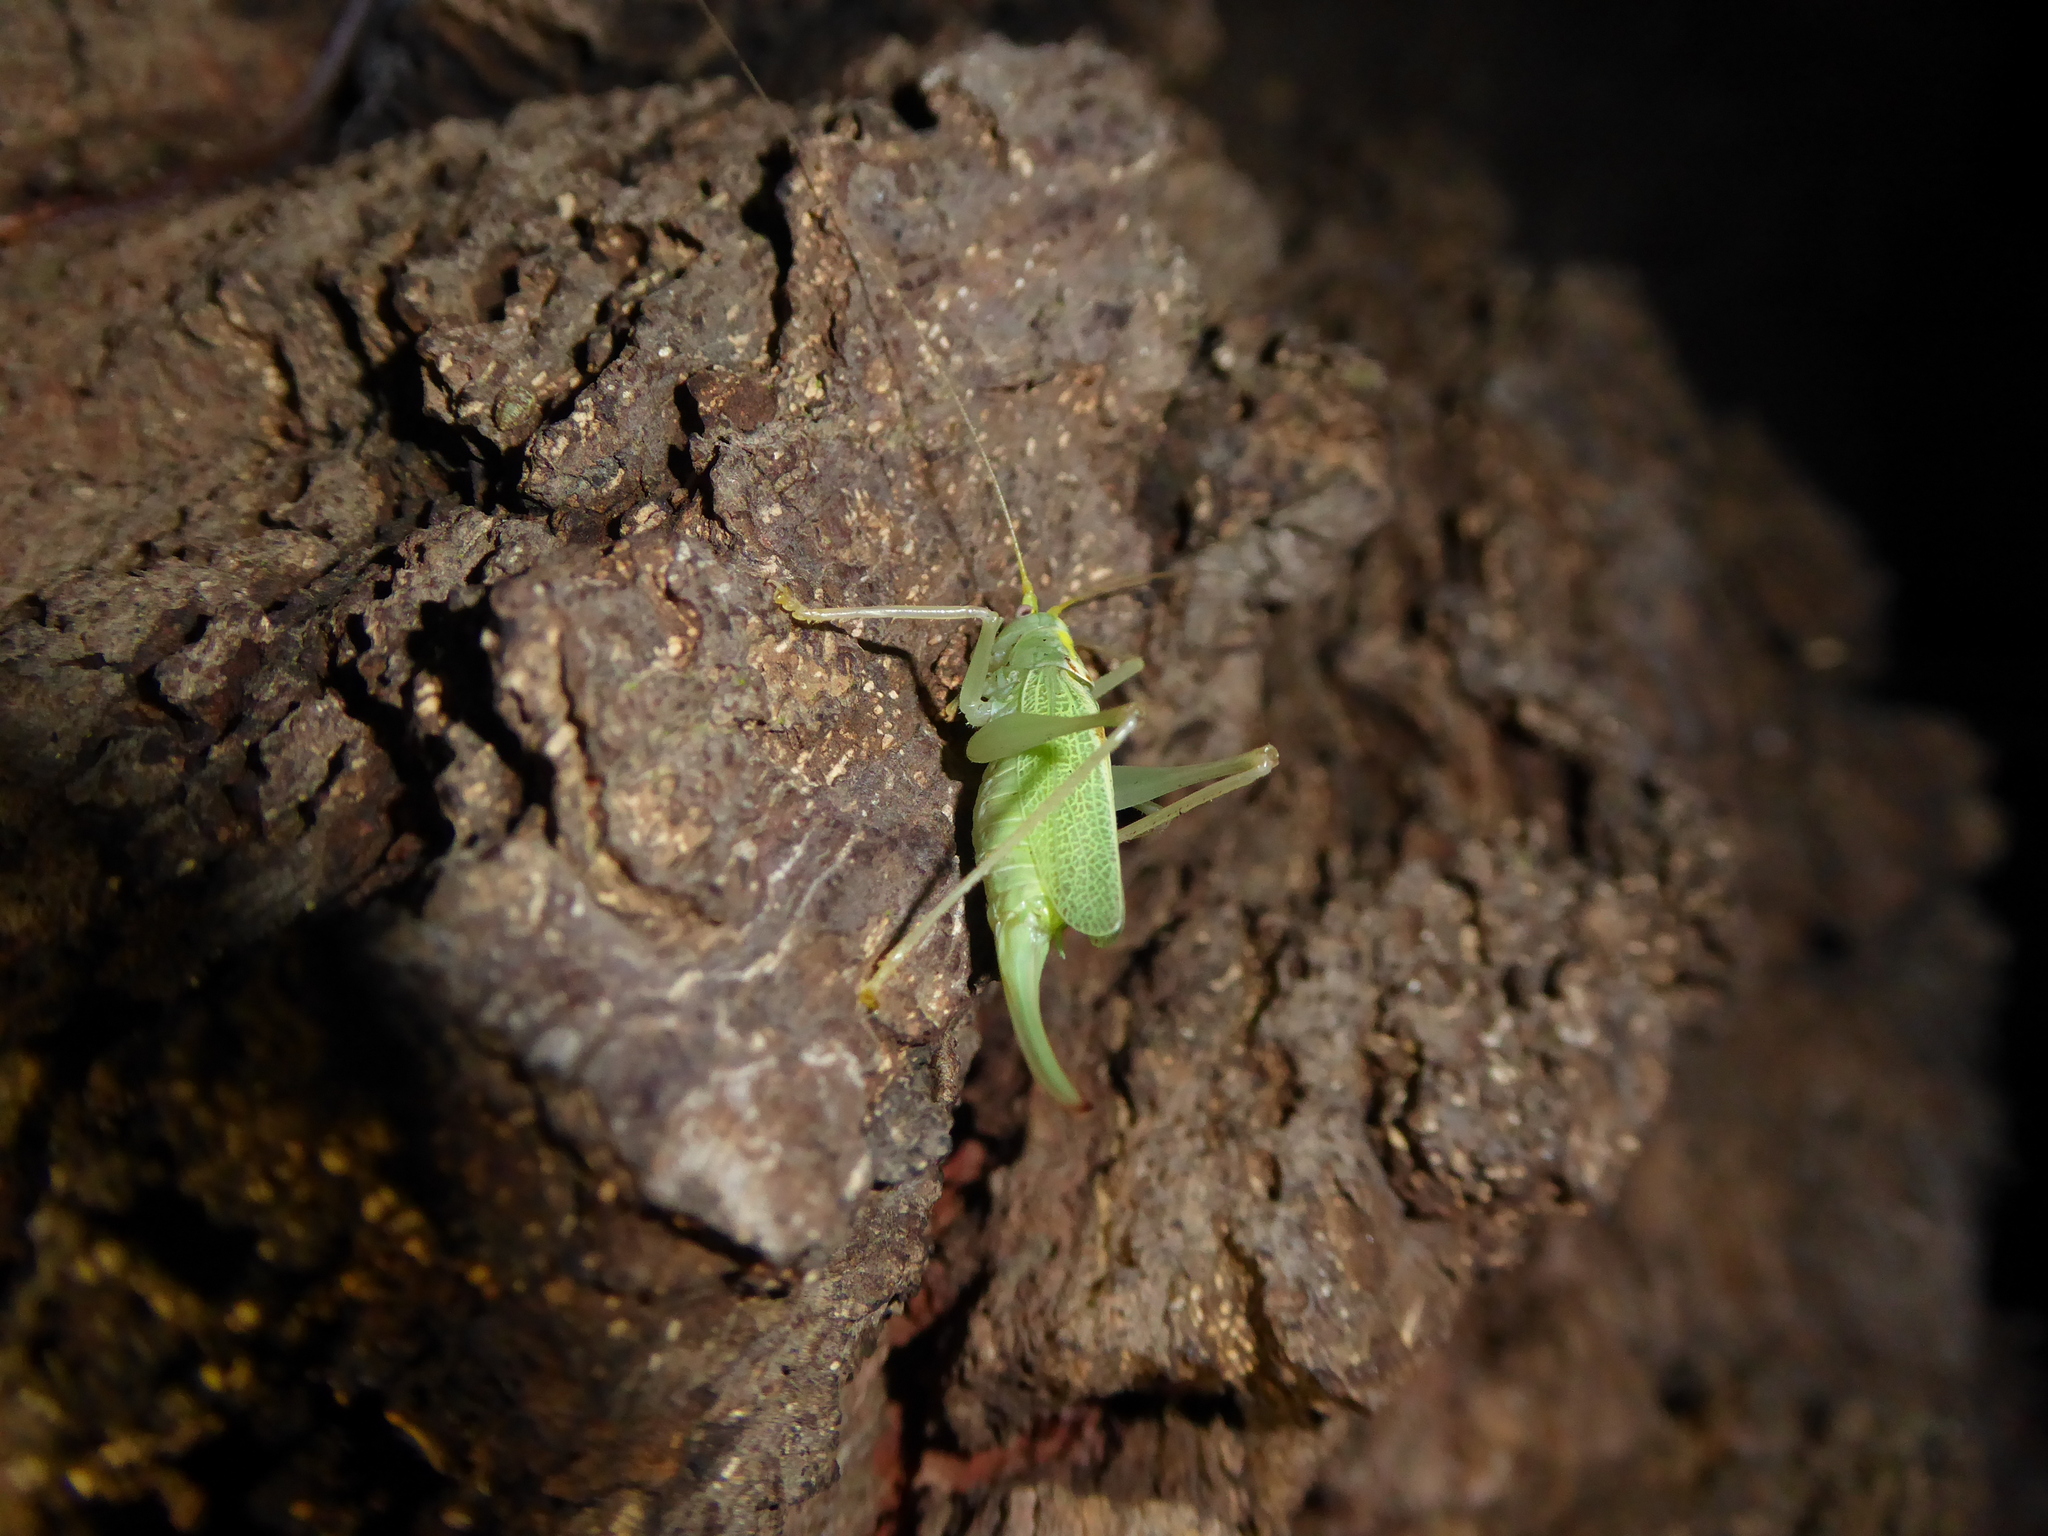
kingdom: Animalia
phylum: Arthropoda
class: Insecta
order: Orthoptera
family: Tettigoniidae
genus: Meconema
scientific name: Meconema thalassinum
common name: Oak bush-cricket
